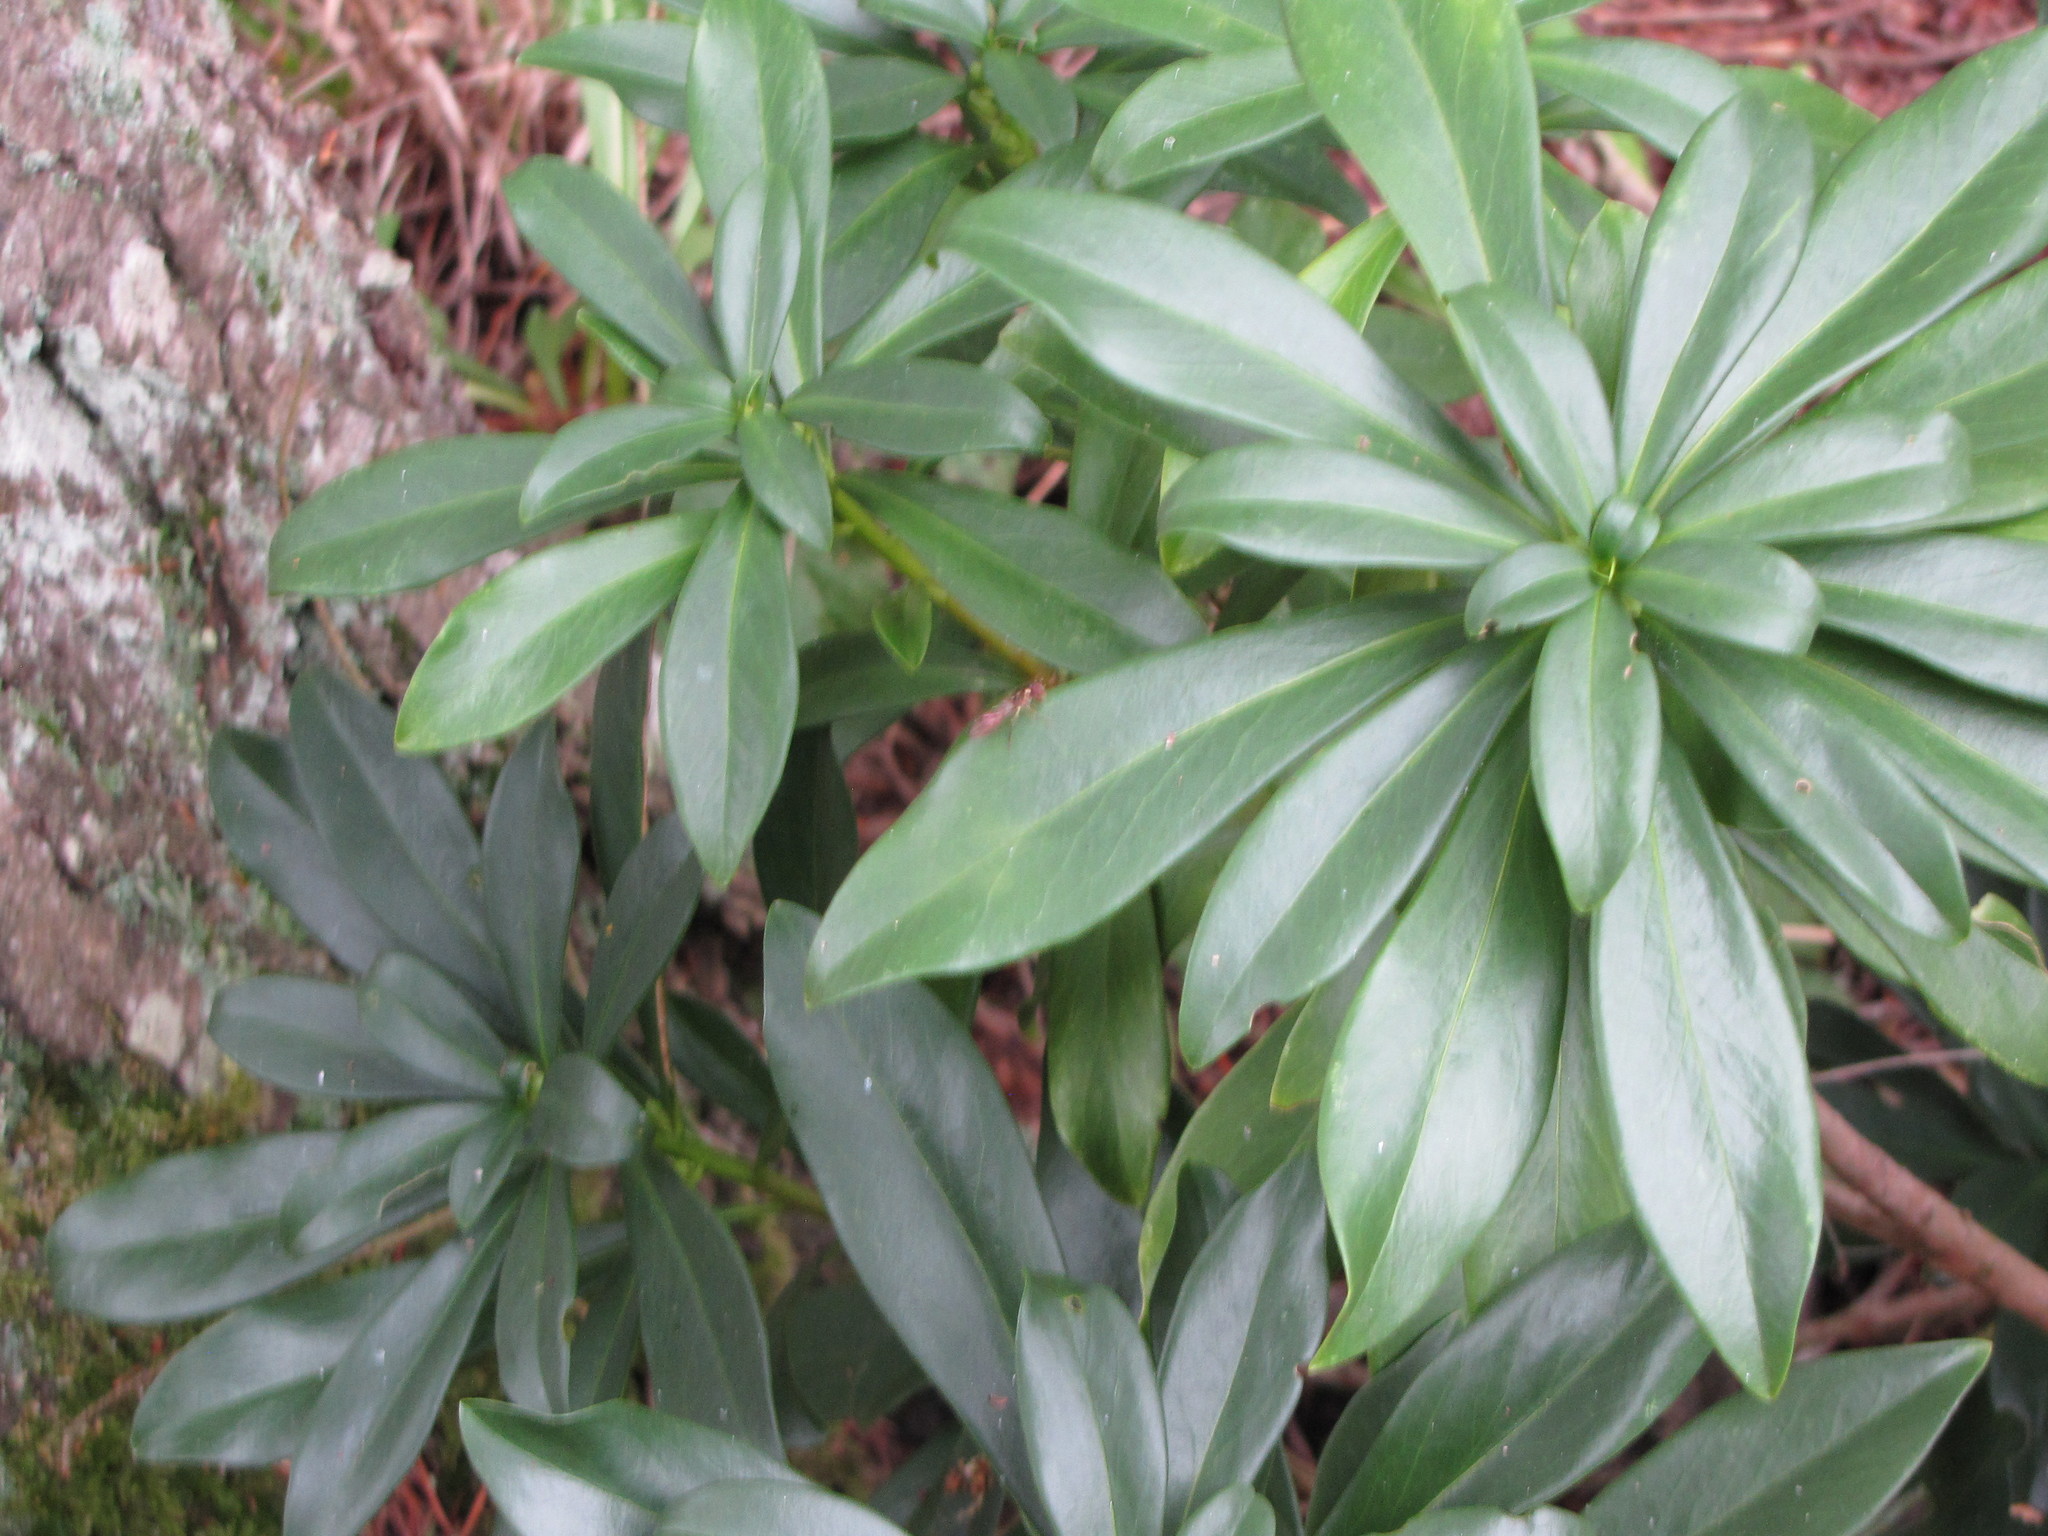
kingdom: Plantae
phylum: Tracheophyta
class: Magnoliopsida
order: Malvales
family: Thymelaeaceae
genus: Daphne
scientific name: Daphne laureola
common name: Spurge-laurel
